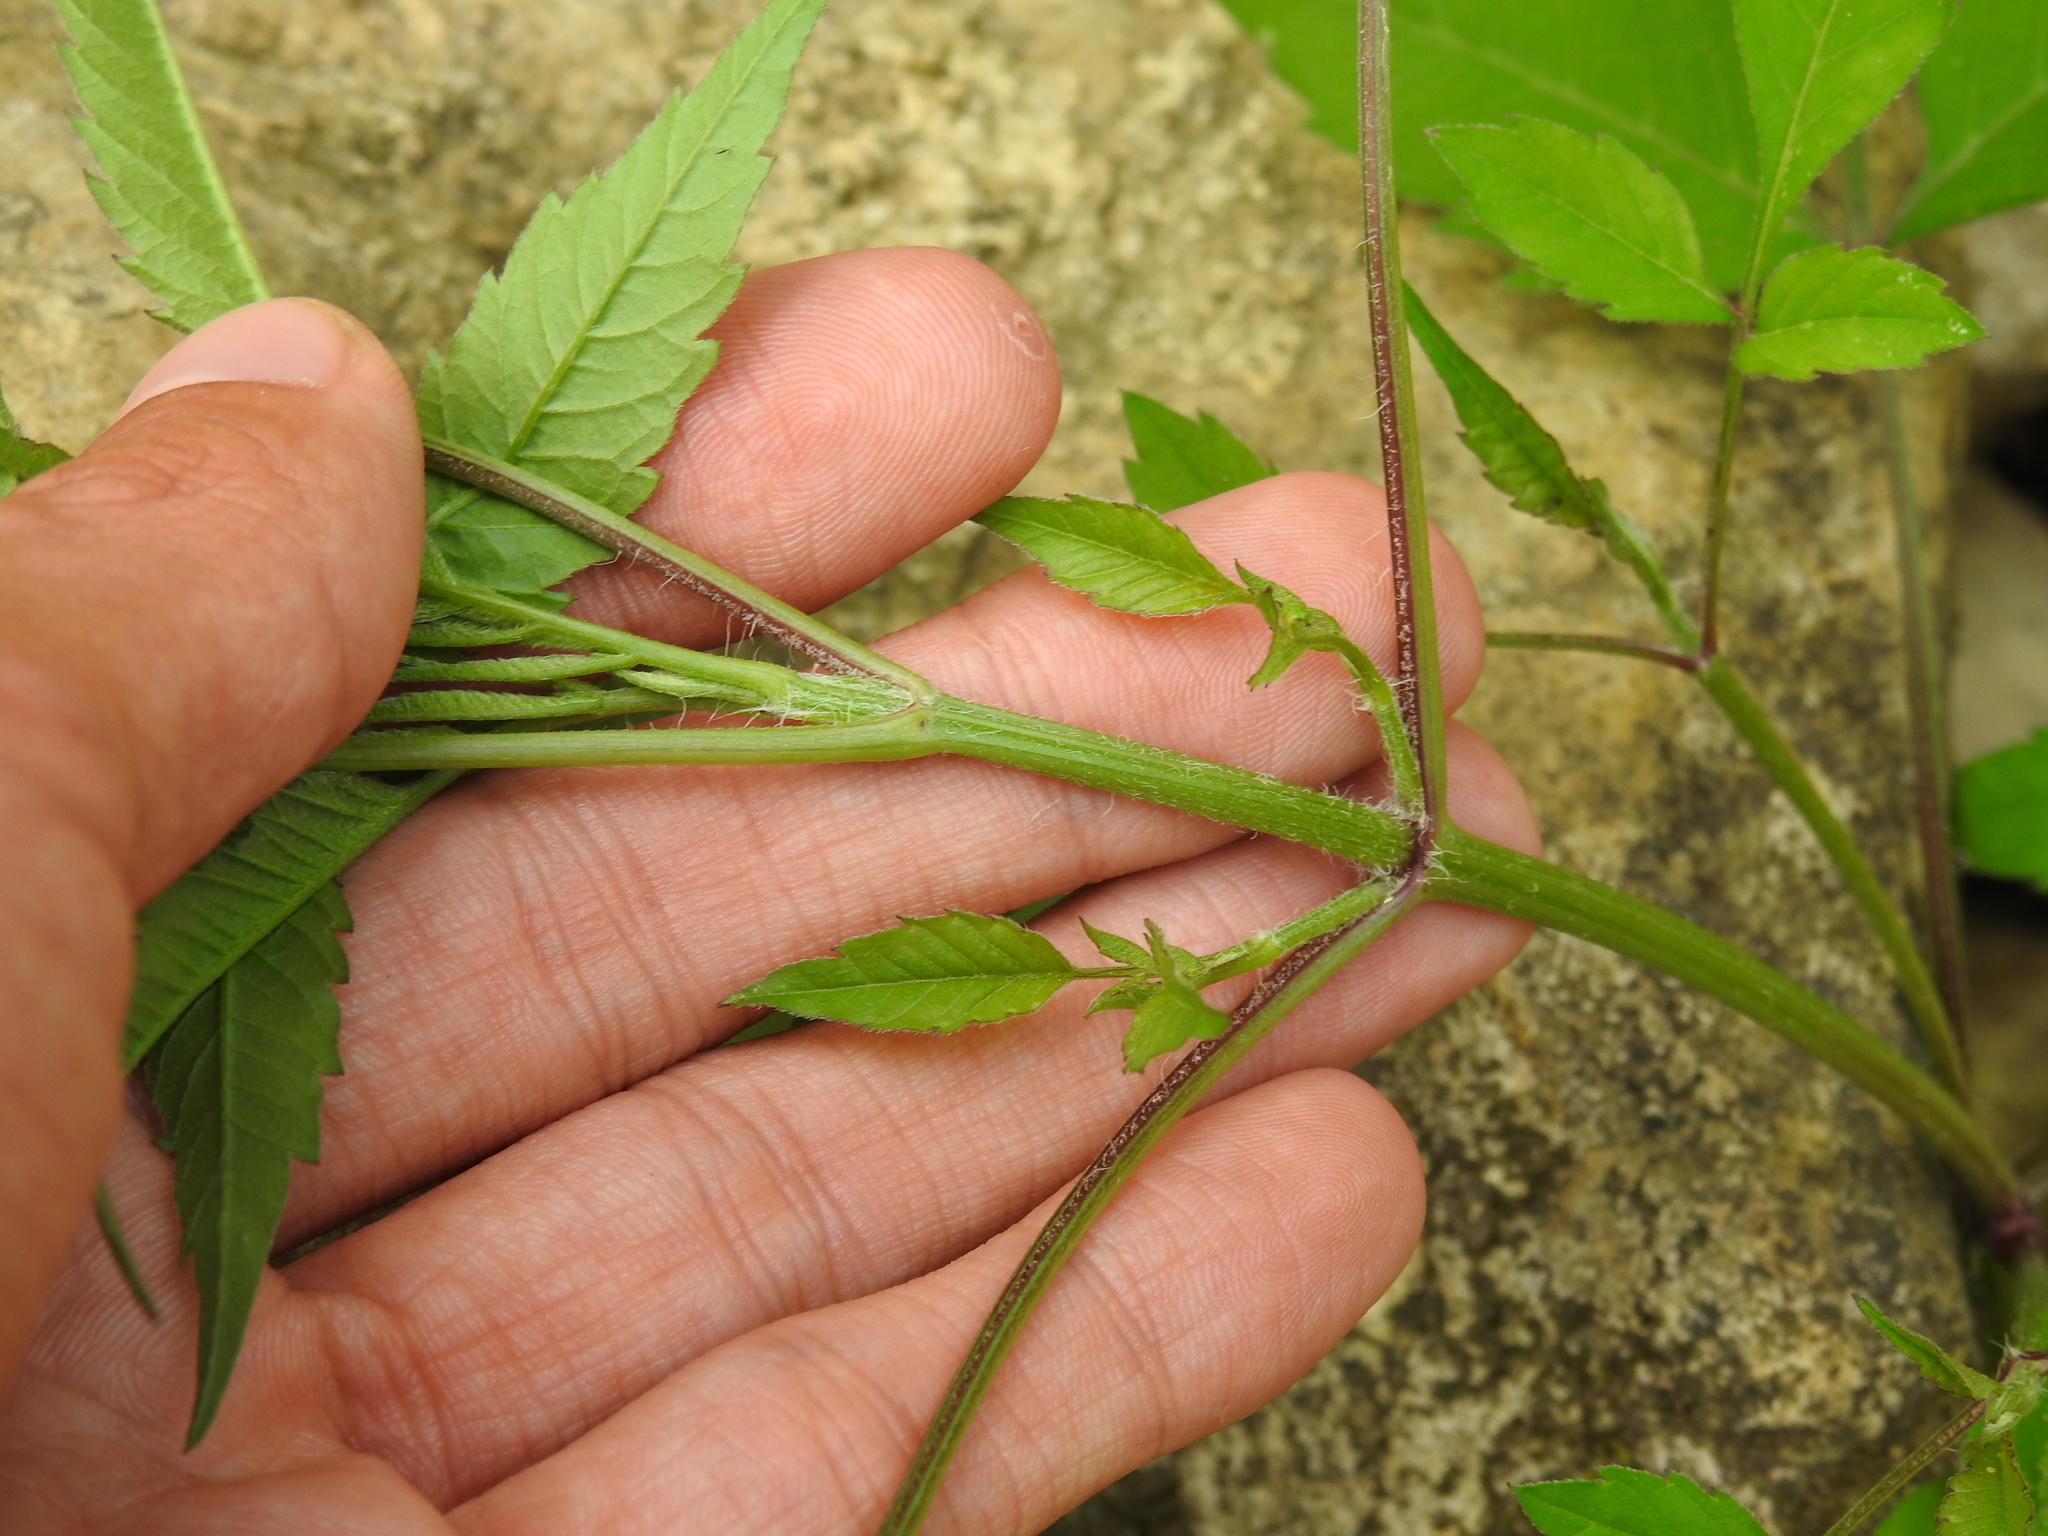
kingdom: Plantae
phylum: Tracheophyta
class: Magnoliopsida
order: Asterales
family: Asteraceae
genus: Bidens
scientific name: Bidens frondosa
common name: Beggarticks
